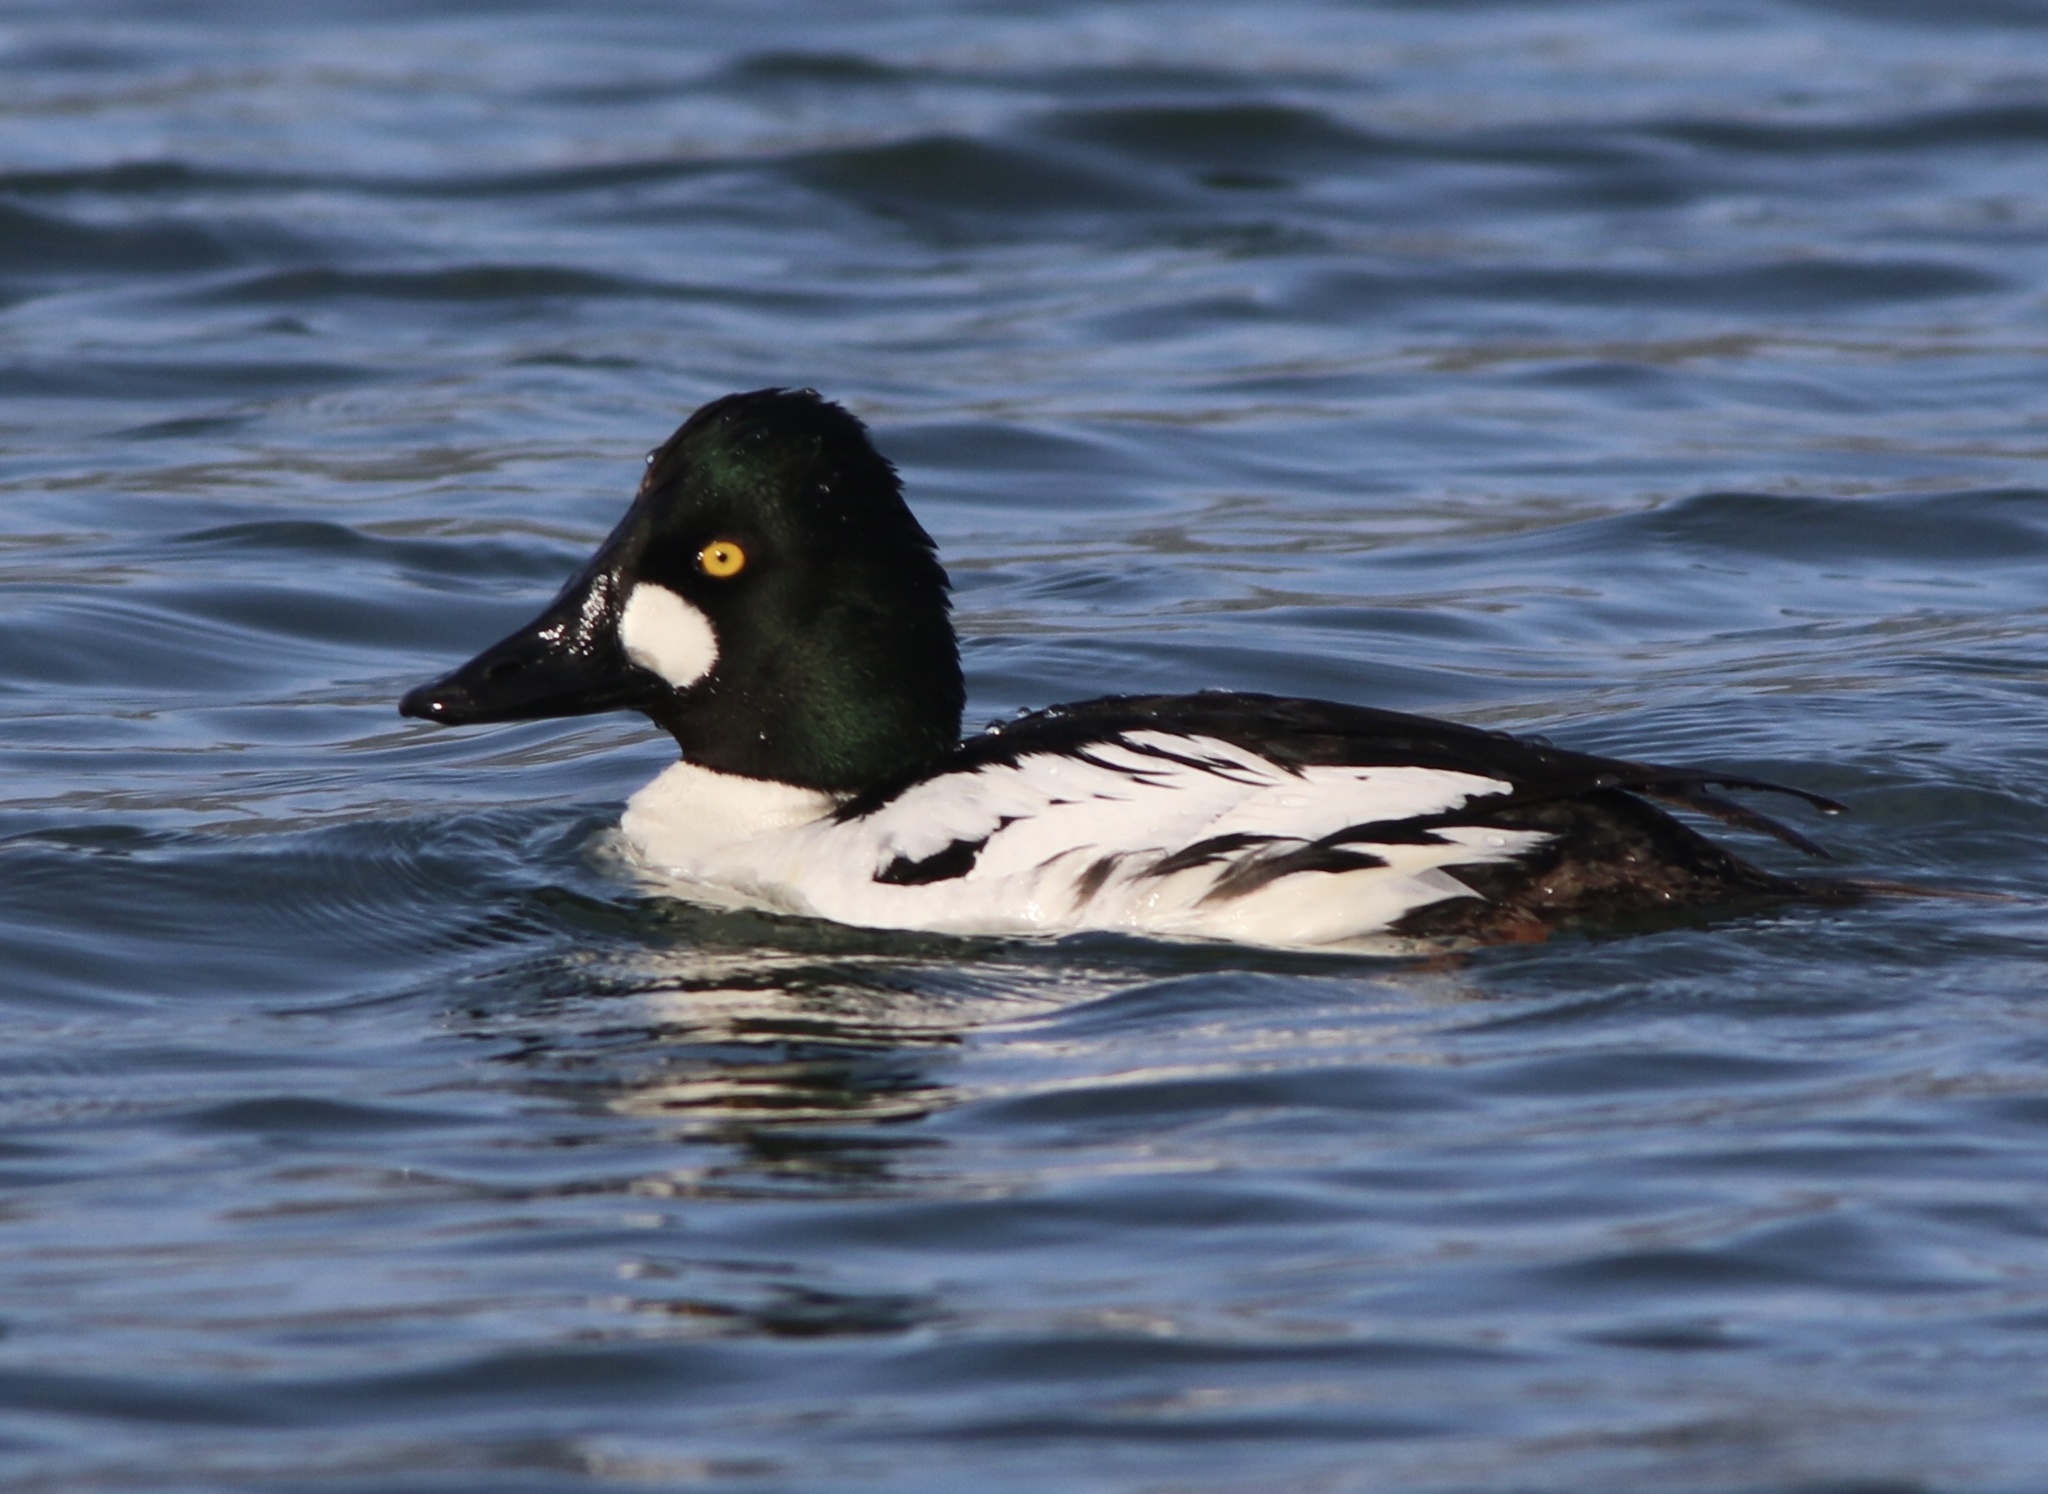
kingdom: Animalia
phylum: Chordata
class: Aves
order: Anseriformes
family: Anatidae
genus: Bucephala
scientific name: Bucephala clangula
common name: Common goldeneye
